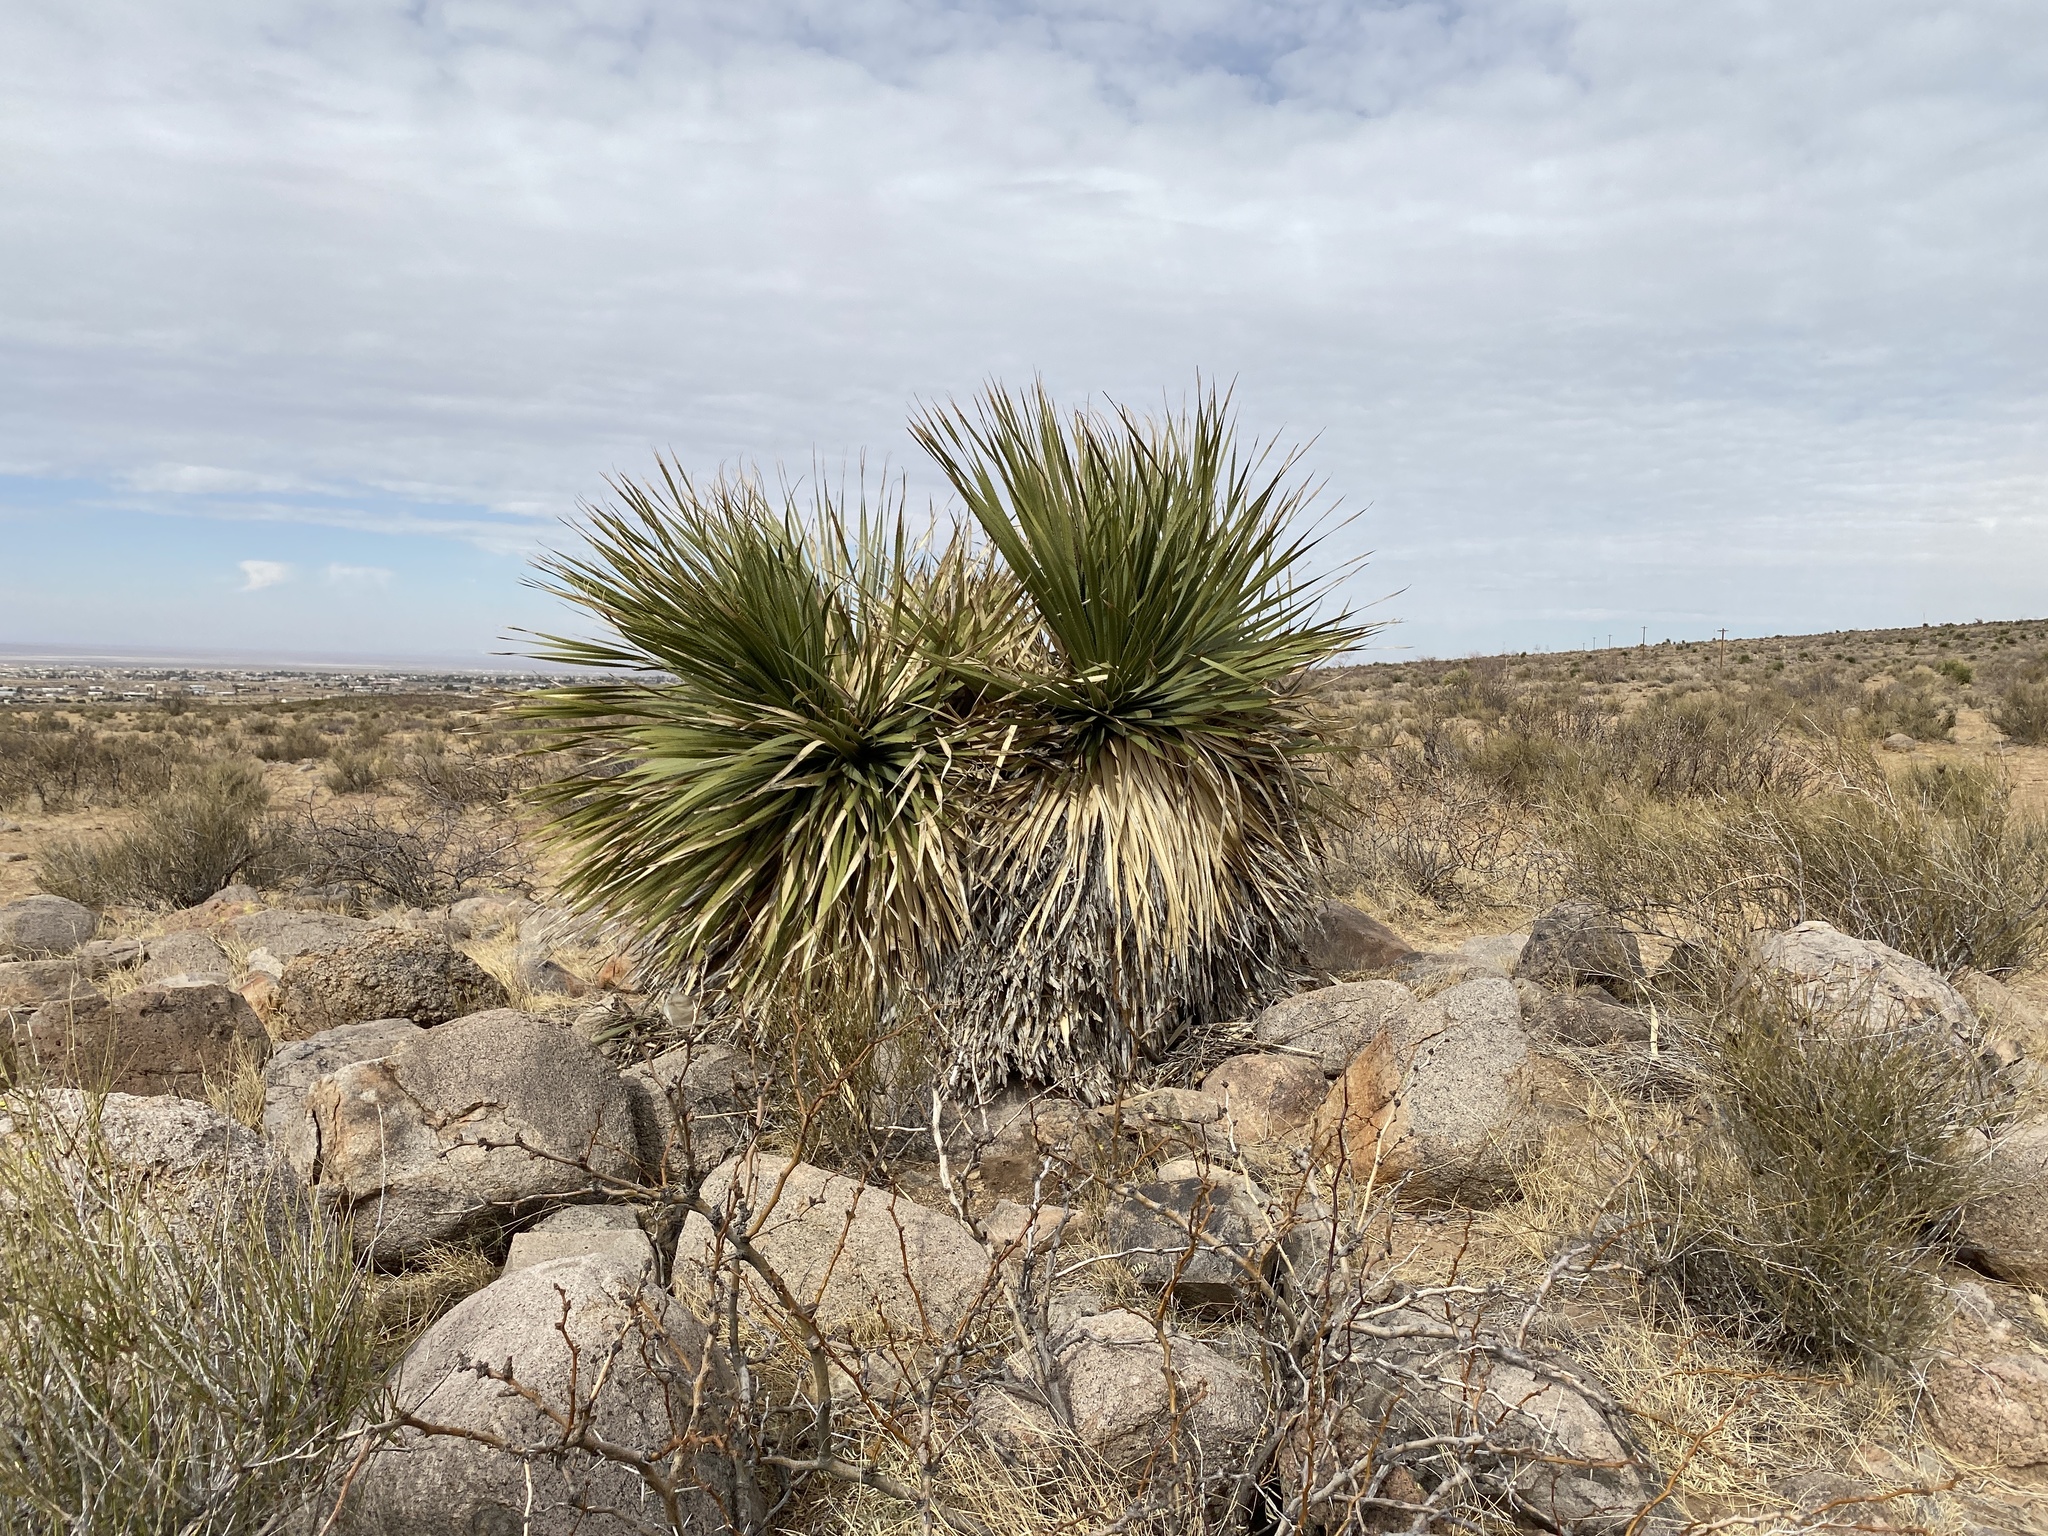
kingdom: Plantae
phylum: Tracheophyta
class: Liliopsida
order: Asparagales
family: Asparagaceae
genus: Dasylirion
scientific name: Dasylirion wheeleri
